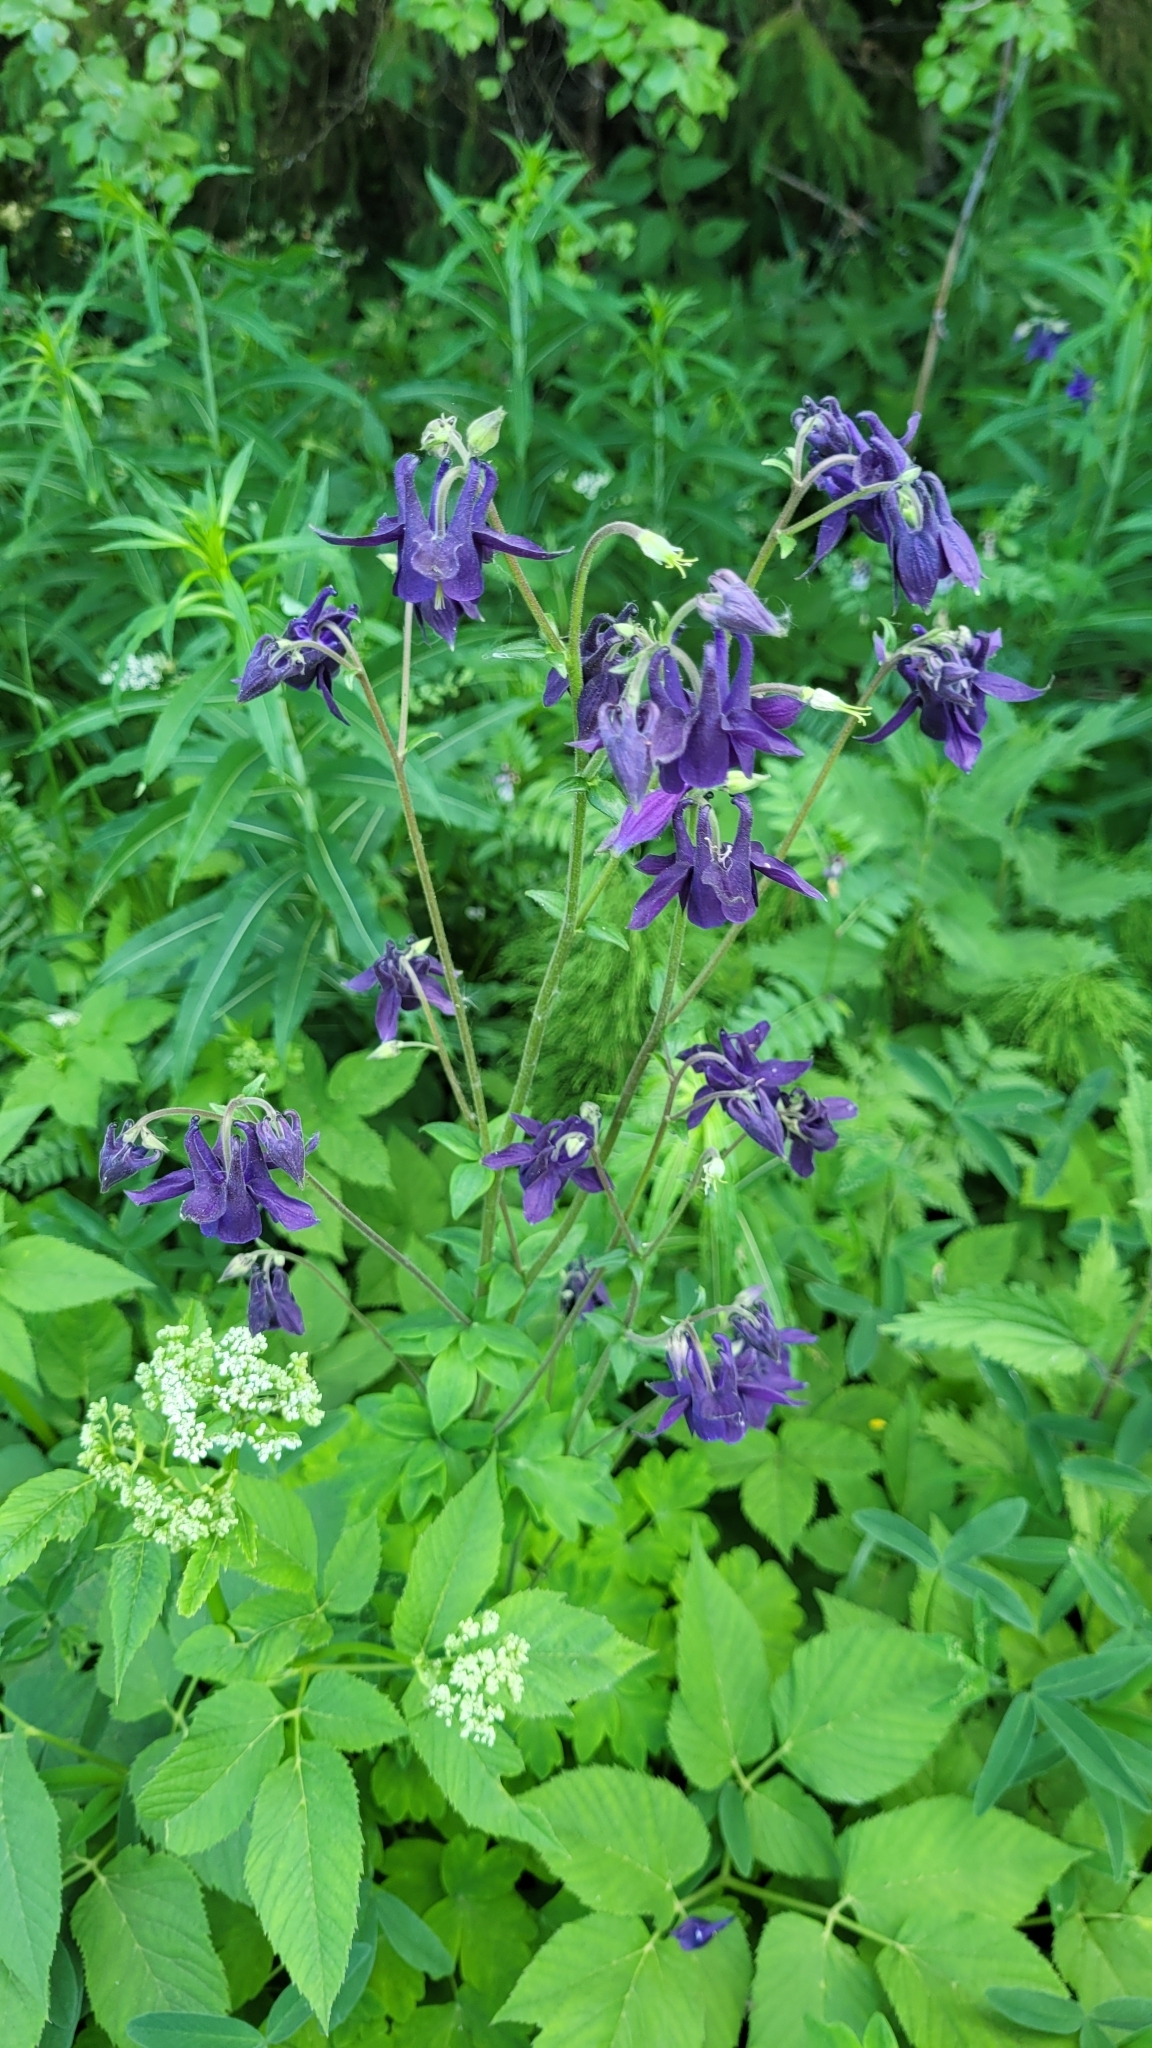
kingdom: Plantae
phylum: Tracheophyta
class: Magnoliopsida
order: Ranunculales
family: Ranunculaceae
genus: Aquilegia
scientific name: Aquilegia vulgaris
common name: Columbine
